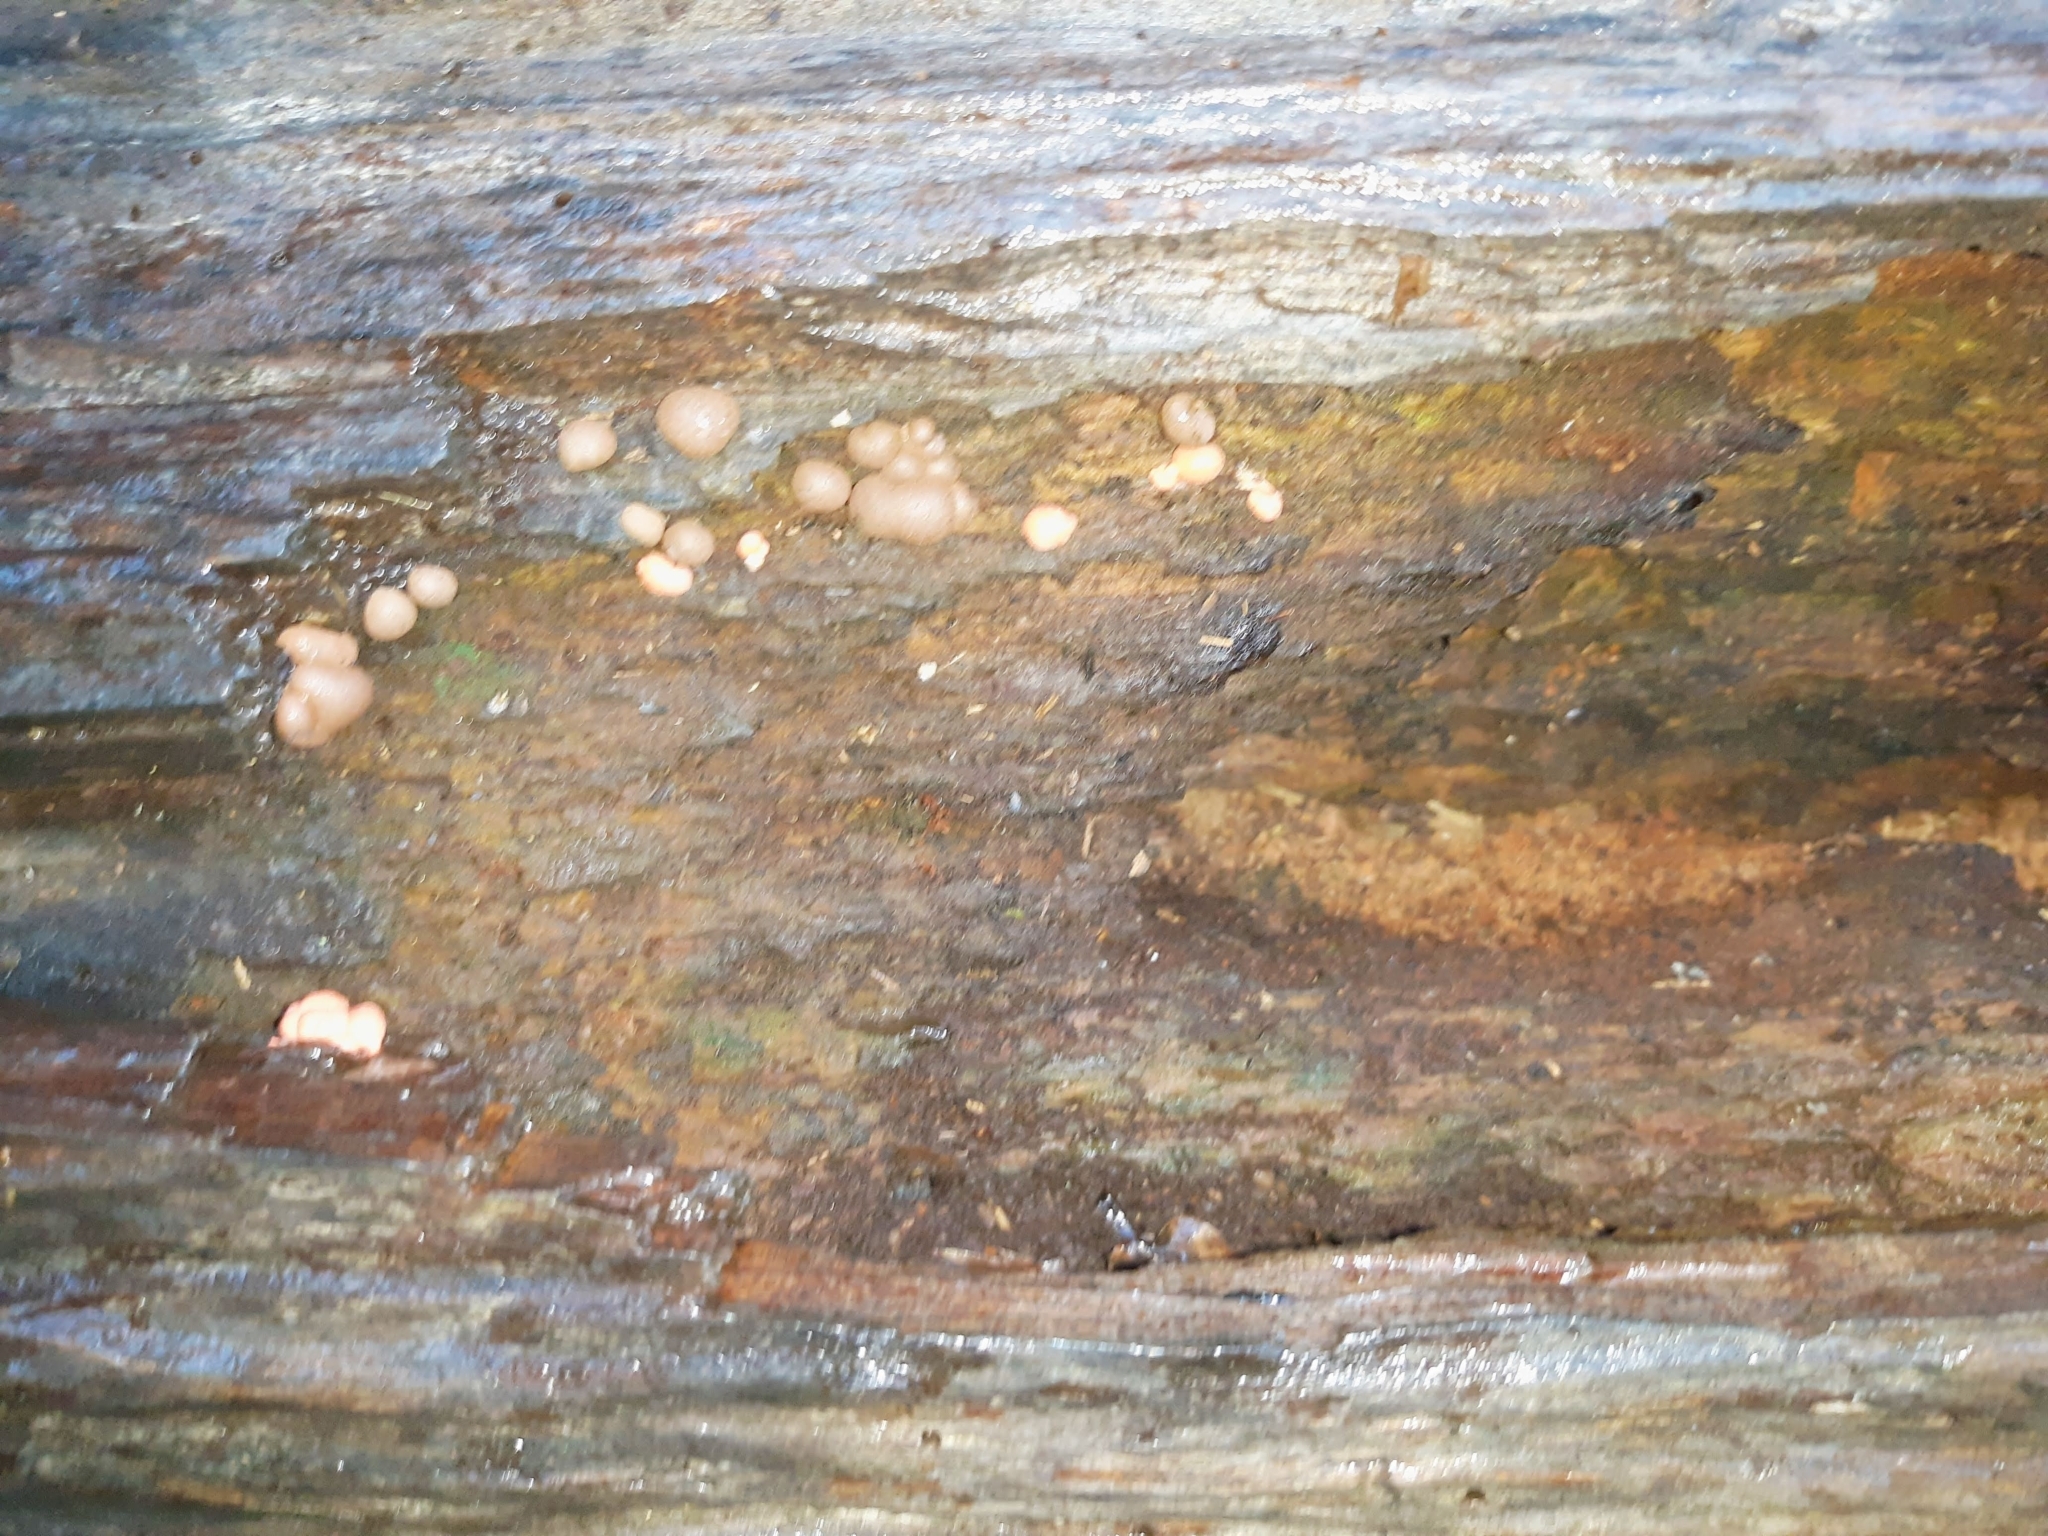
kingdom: Protozoa
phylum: Mycetozoa
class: Myxomycetes
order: Cribrariales
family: Tubiferaceae
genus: Lycogala
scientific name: Lycogala epidendrum
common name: Wolf's milk
